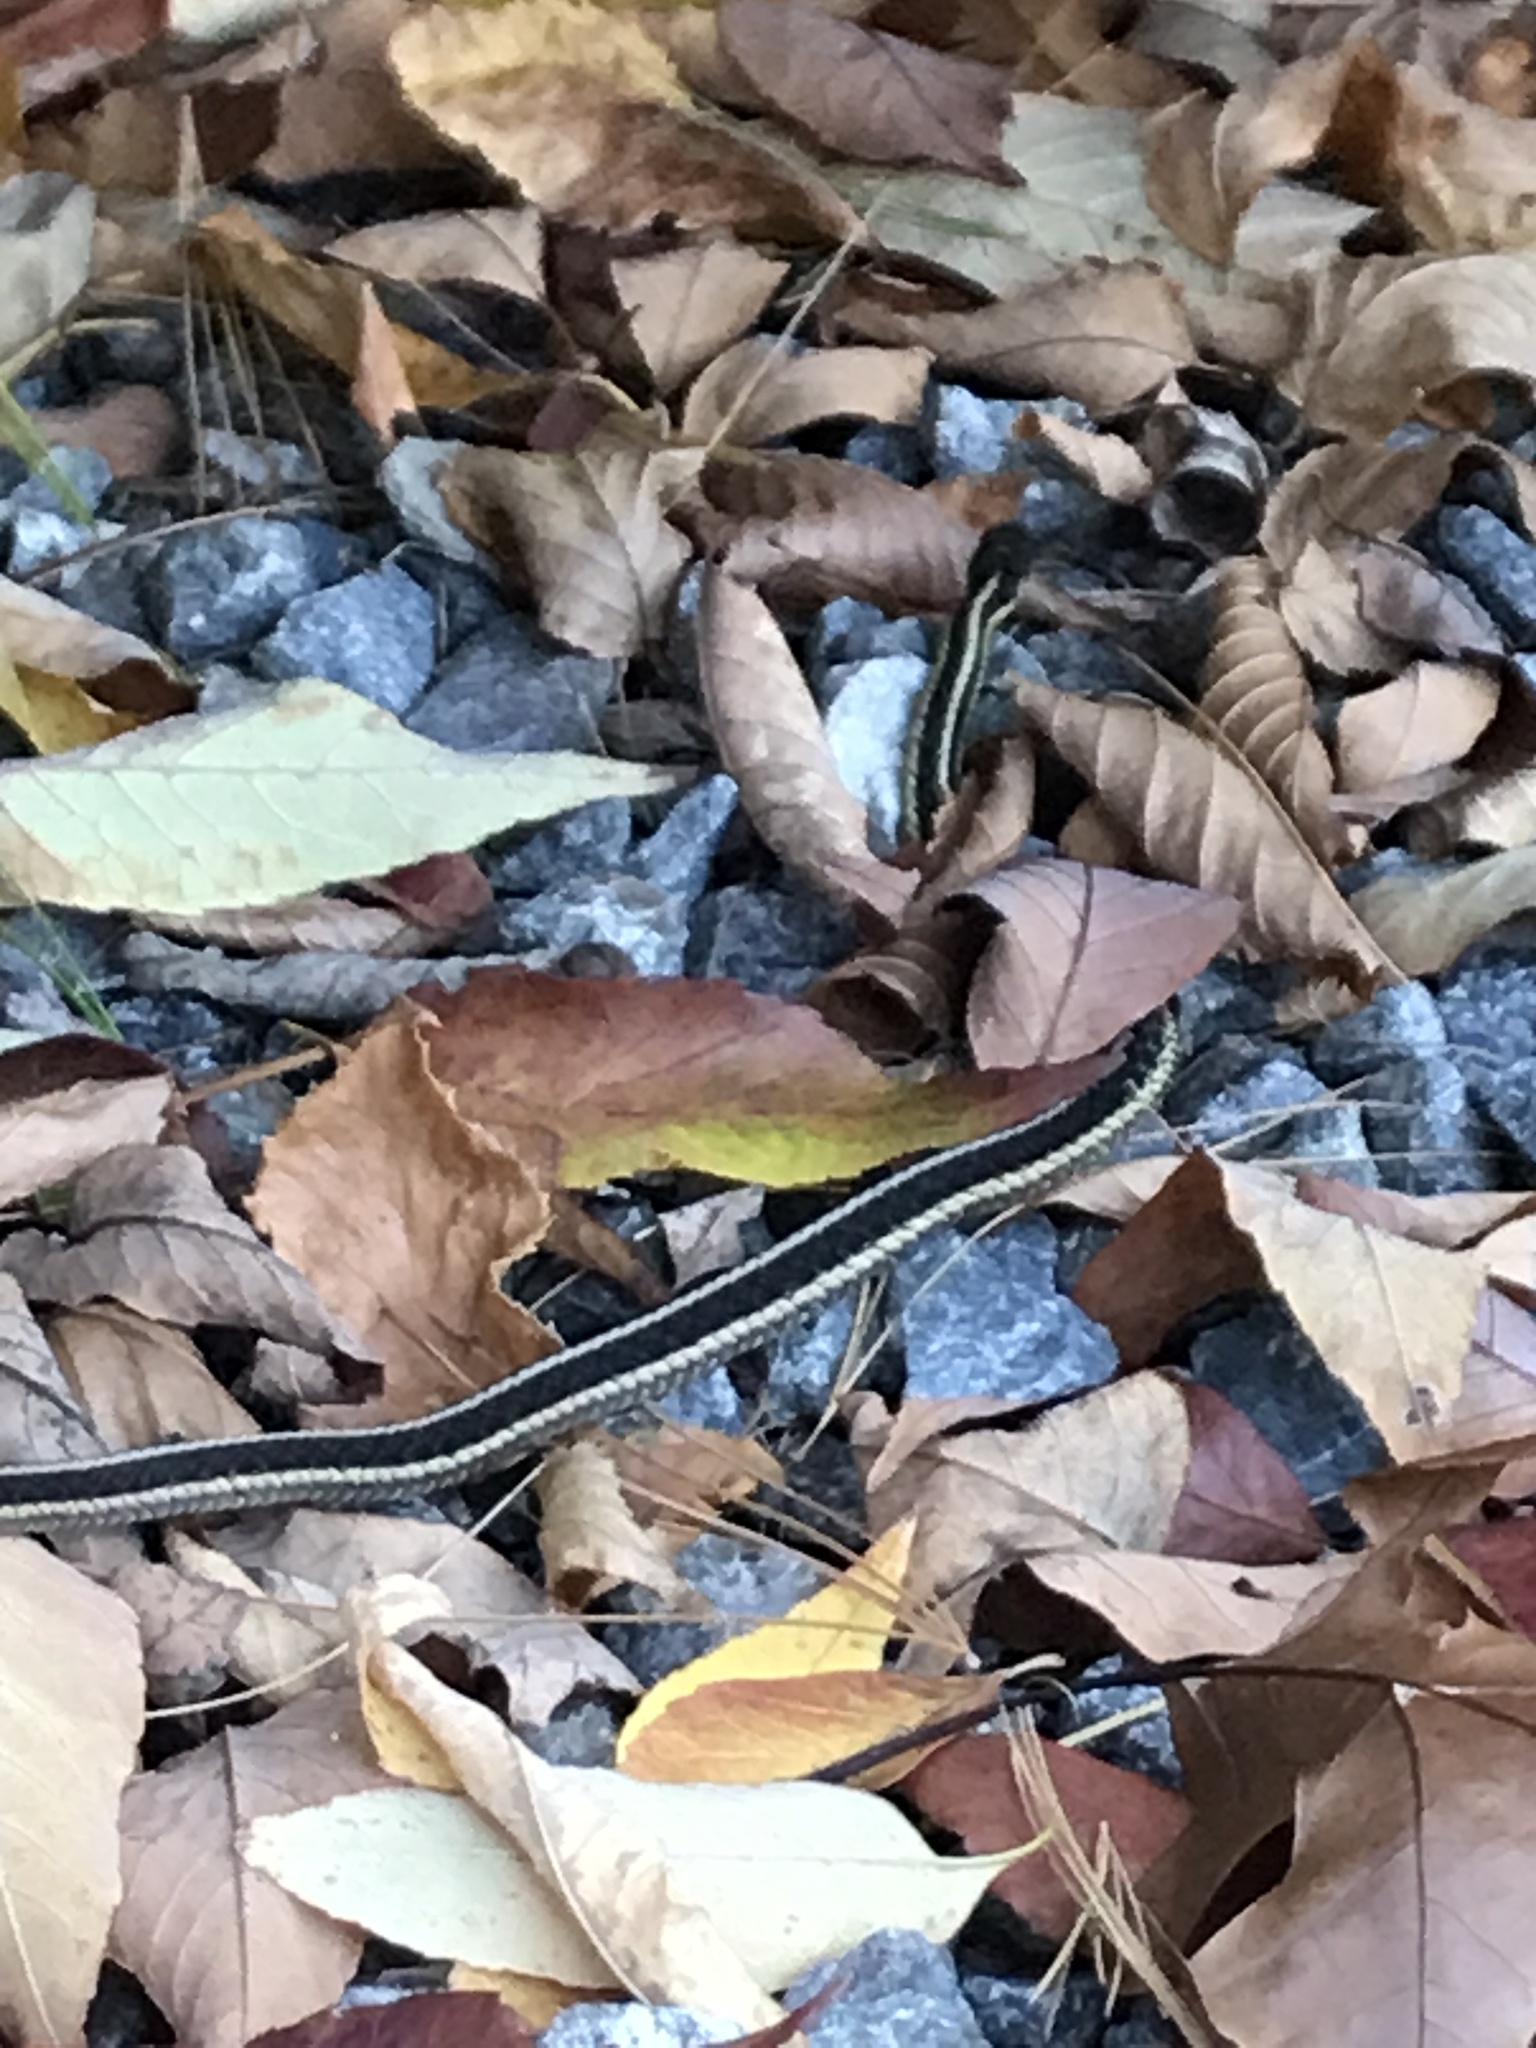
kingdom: Animalia
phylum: Chordata
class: Squamata
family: Colubridae
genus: Thamnophis
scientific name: Thamnophis sirtalis
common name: Common garter snake
